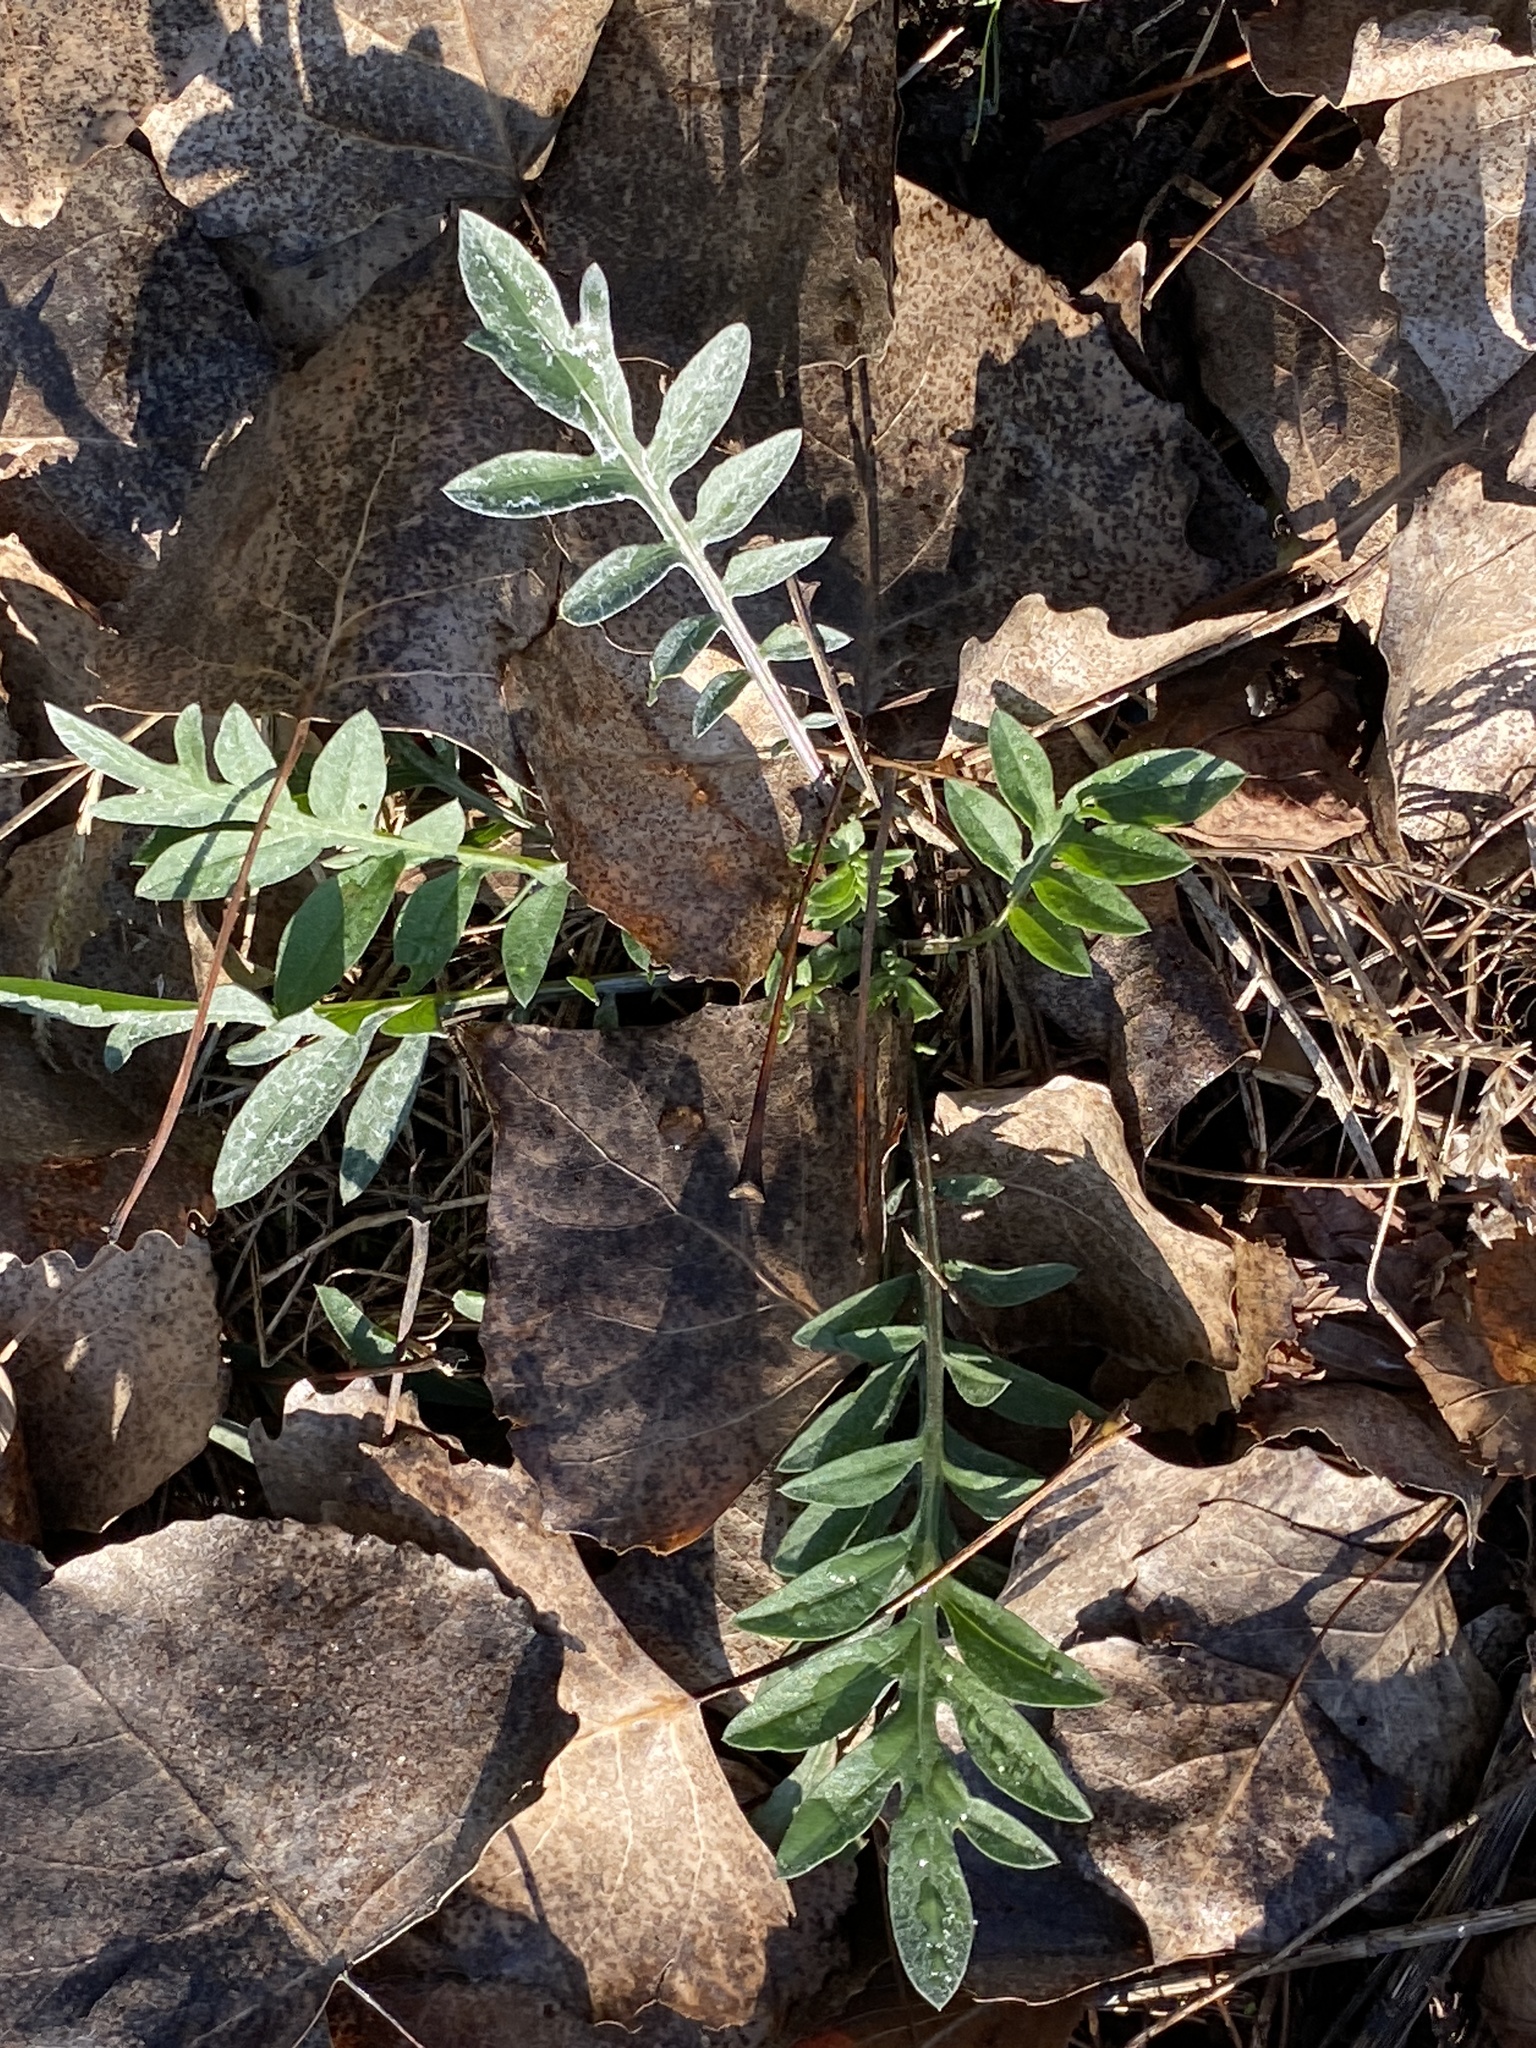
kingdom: Plantae
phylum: Tracheophyta
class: Magnoliopsida
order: Asterales
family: Asteraceae
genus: Centaurea
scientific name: Centaurea stoebe
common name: Spotted knapweed
